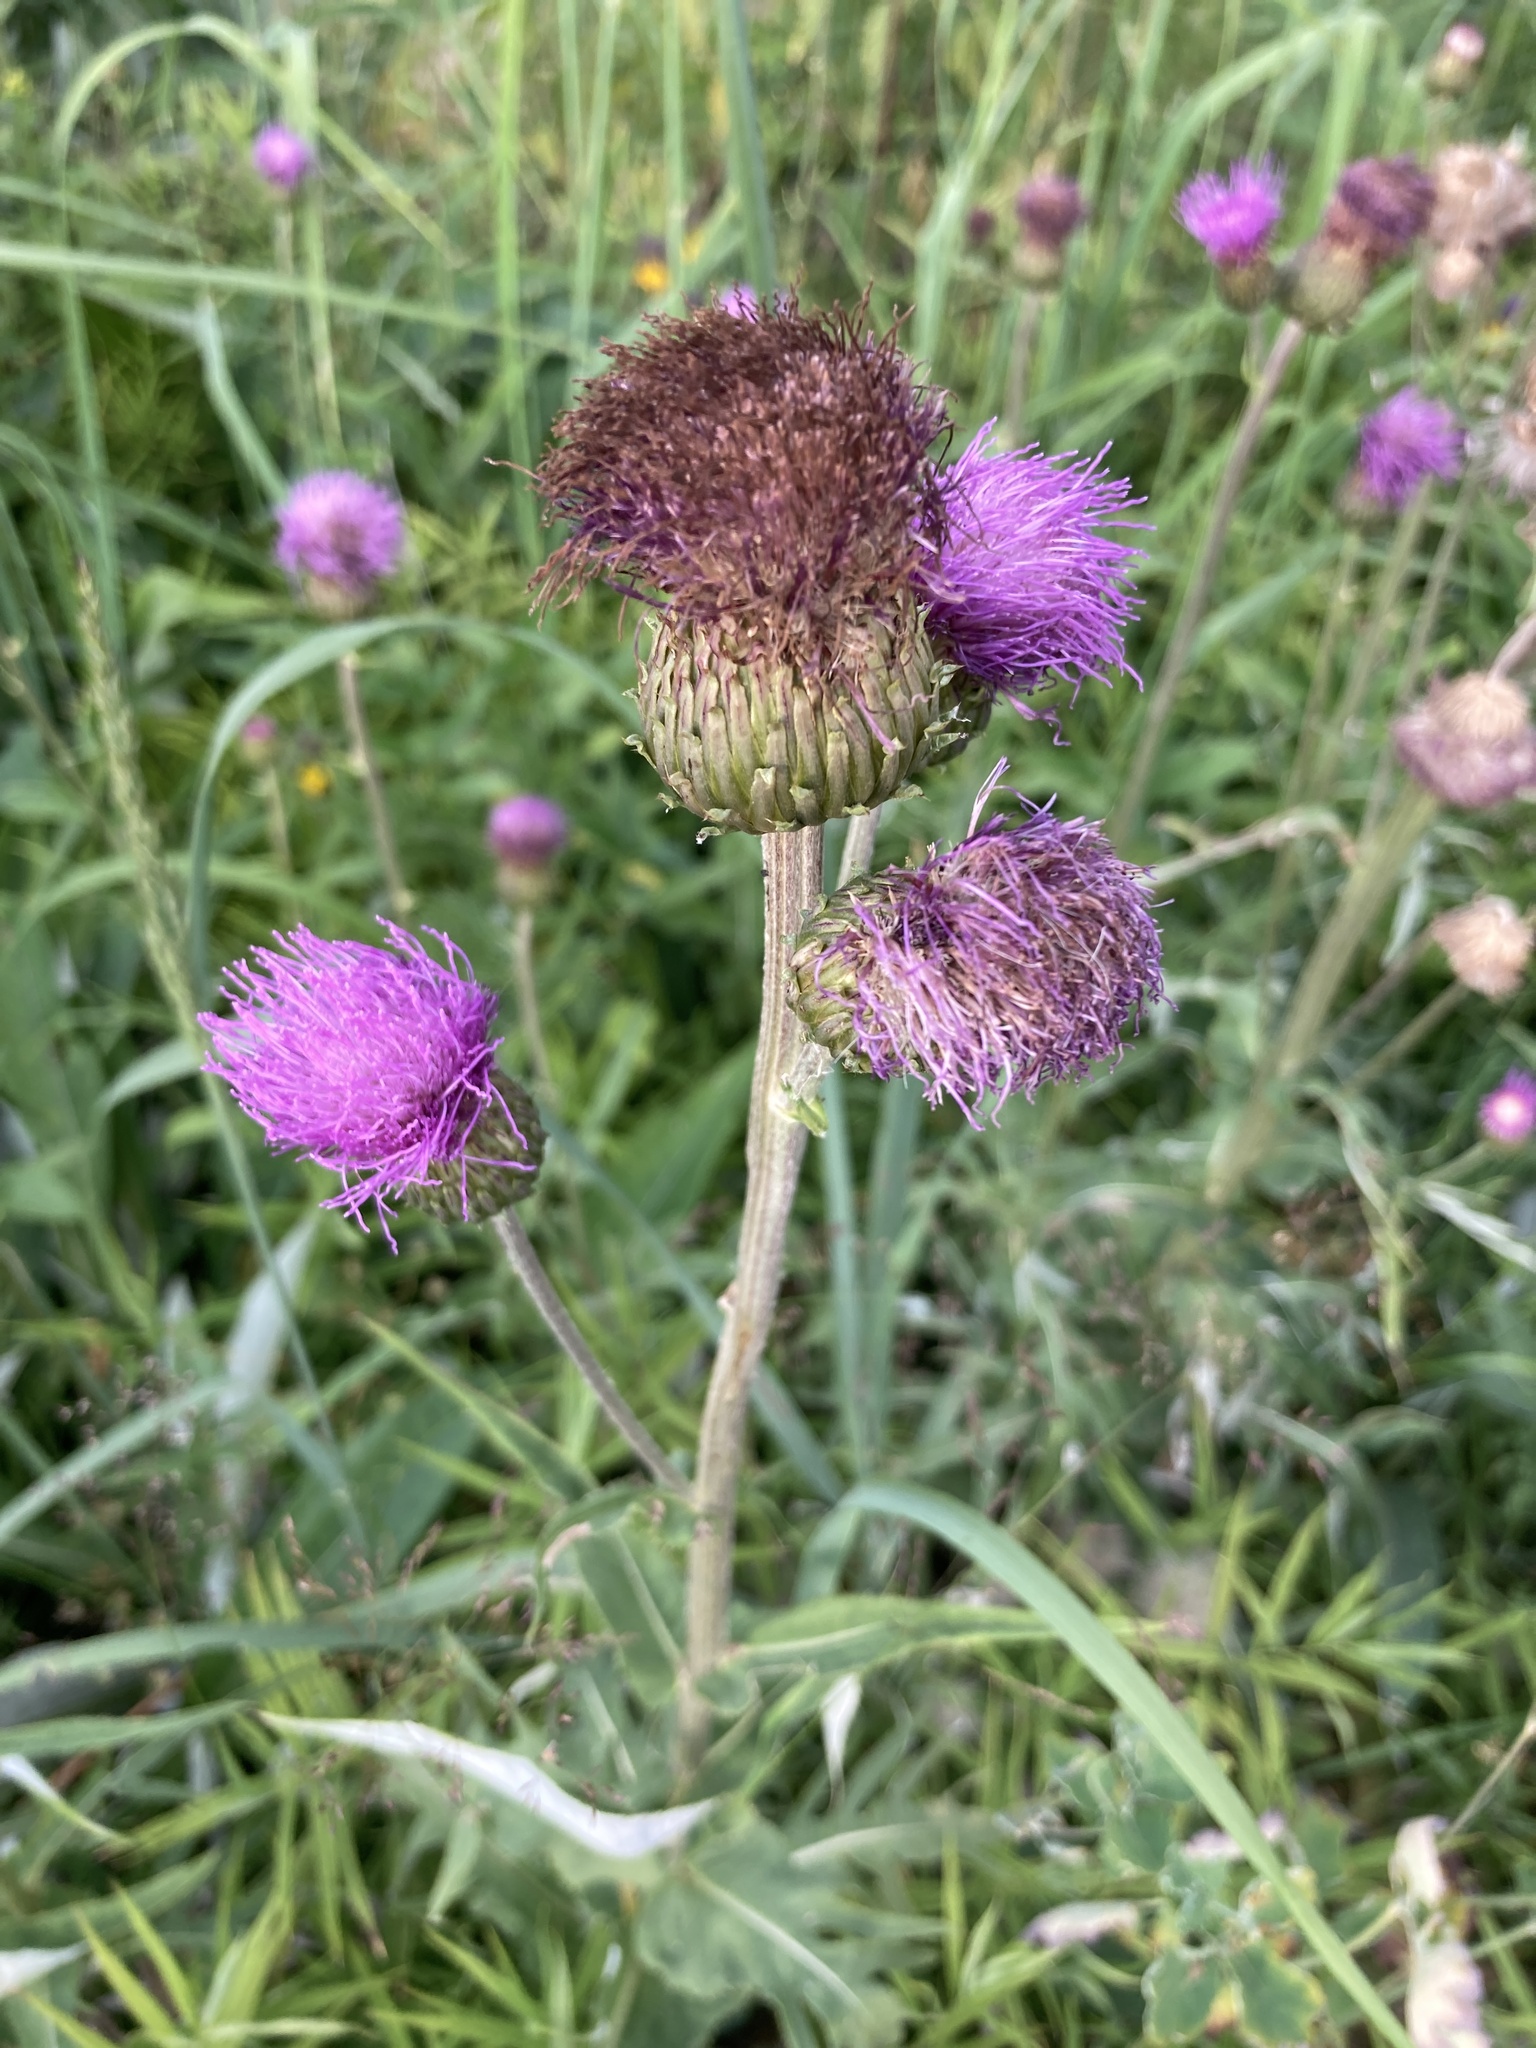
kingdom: Plantae
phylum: Tracheophyta
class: Magnoliopsida
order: Asterales
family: Asteraceae
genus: Cirsium
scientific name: Cirsium heterophyllum
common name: Melancholy thistle
